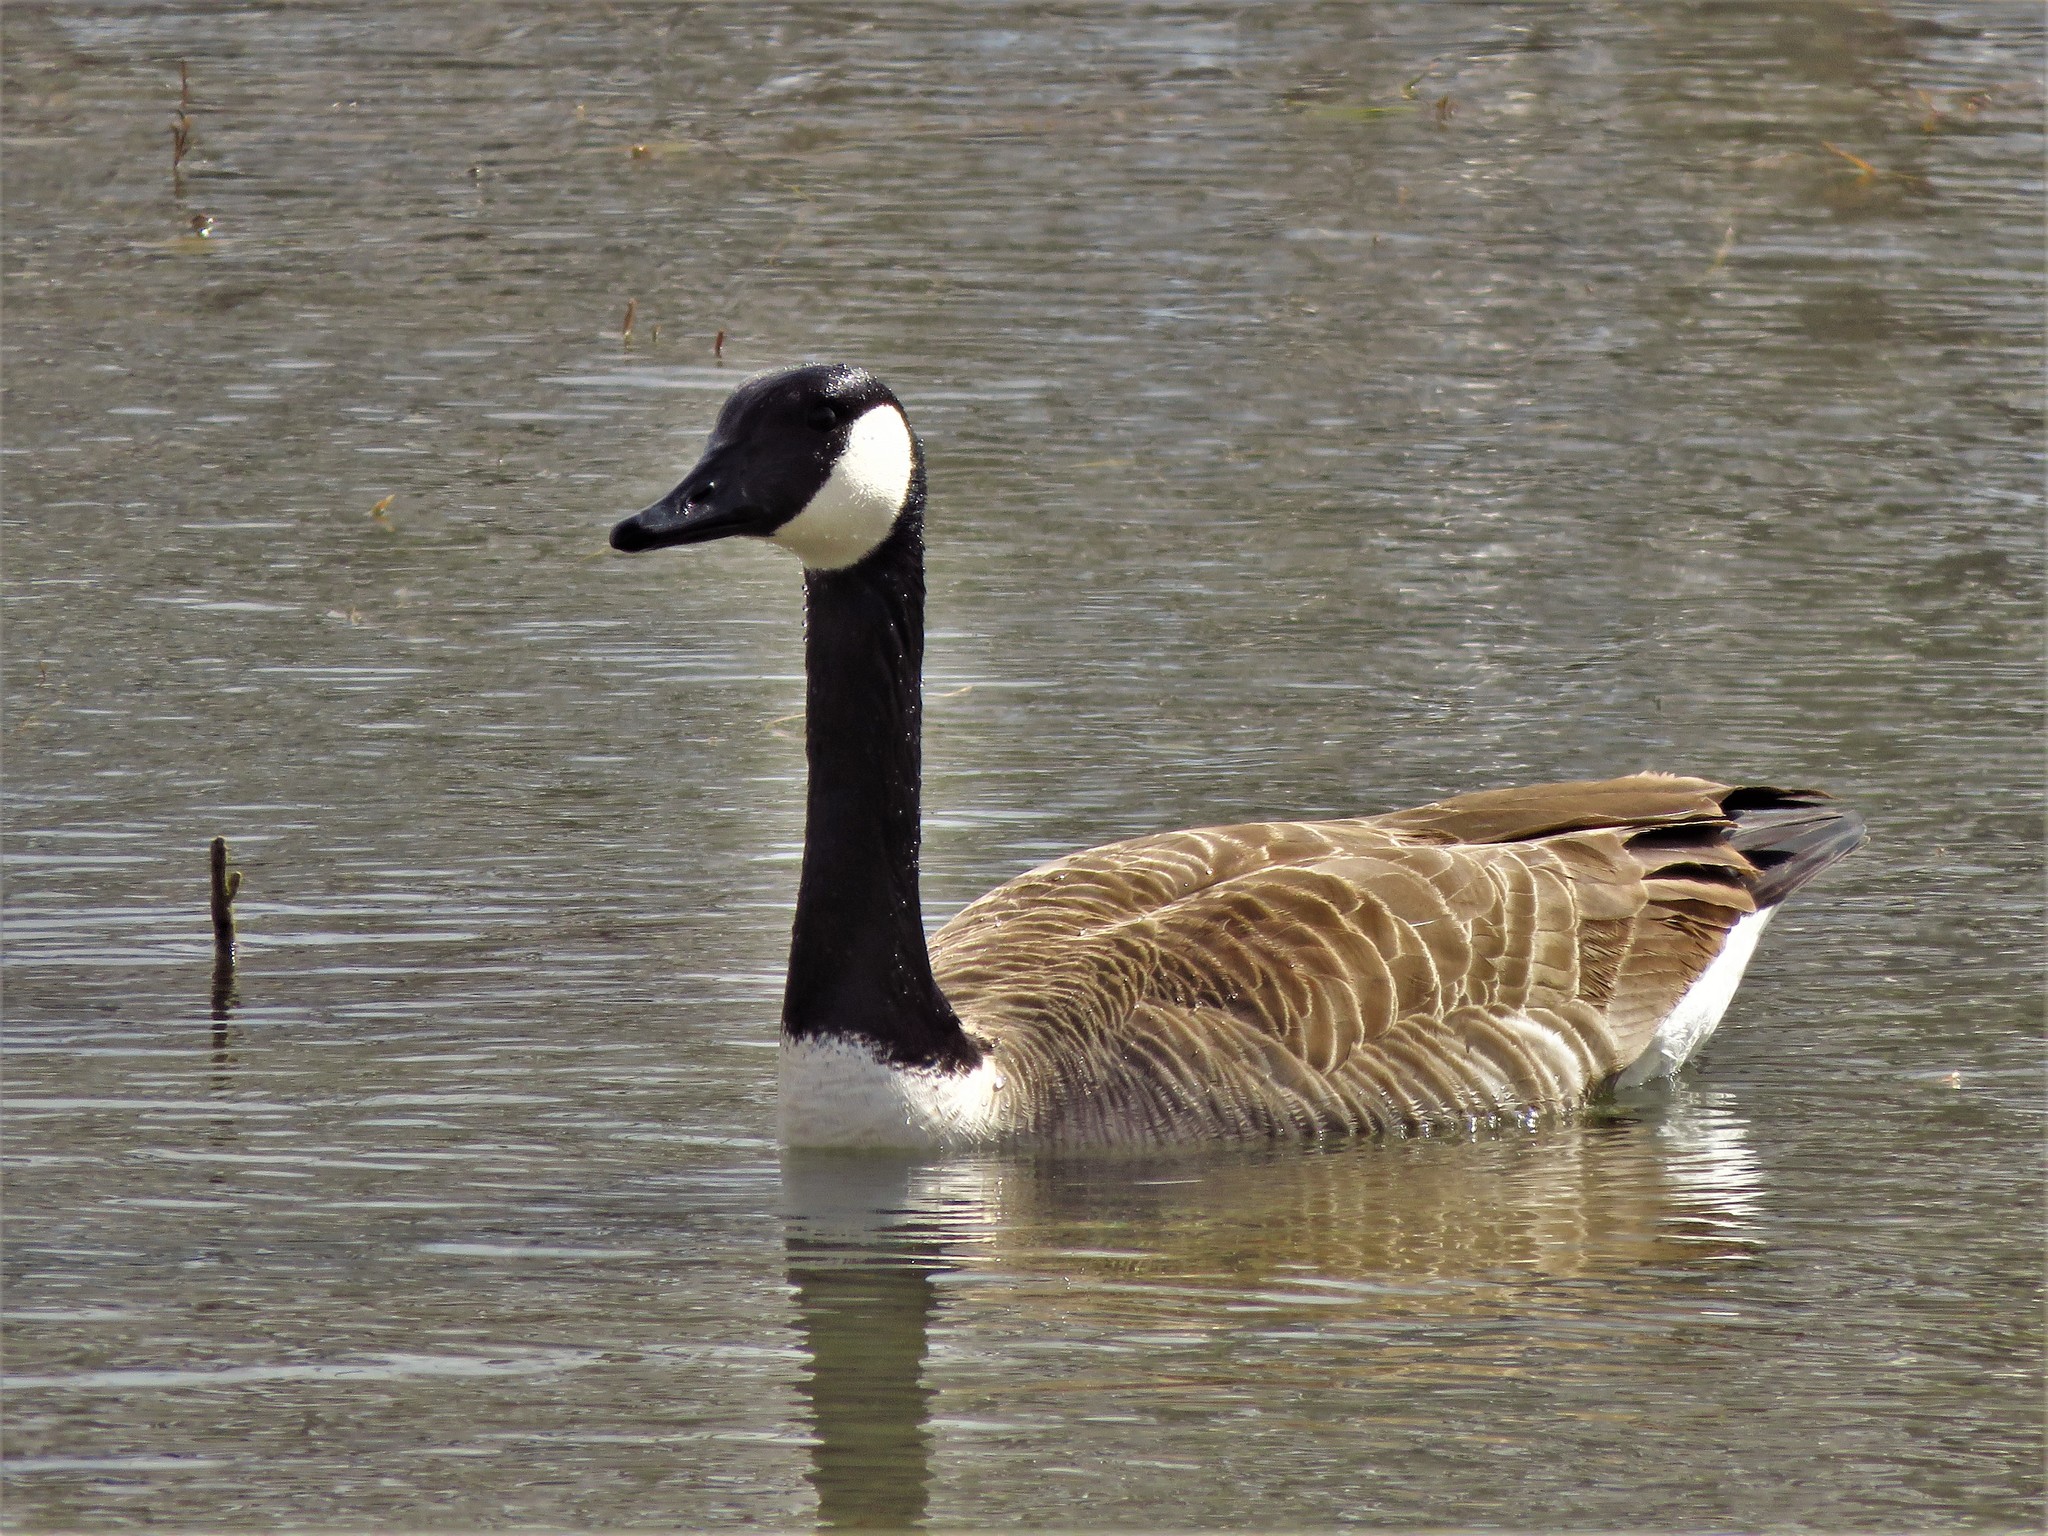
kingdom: Animalia
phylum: Chordata
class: Aves
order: Anseriformes
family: Anatidae
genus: Branta
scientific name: Branta canadensis
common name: Canada goose
